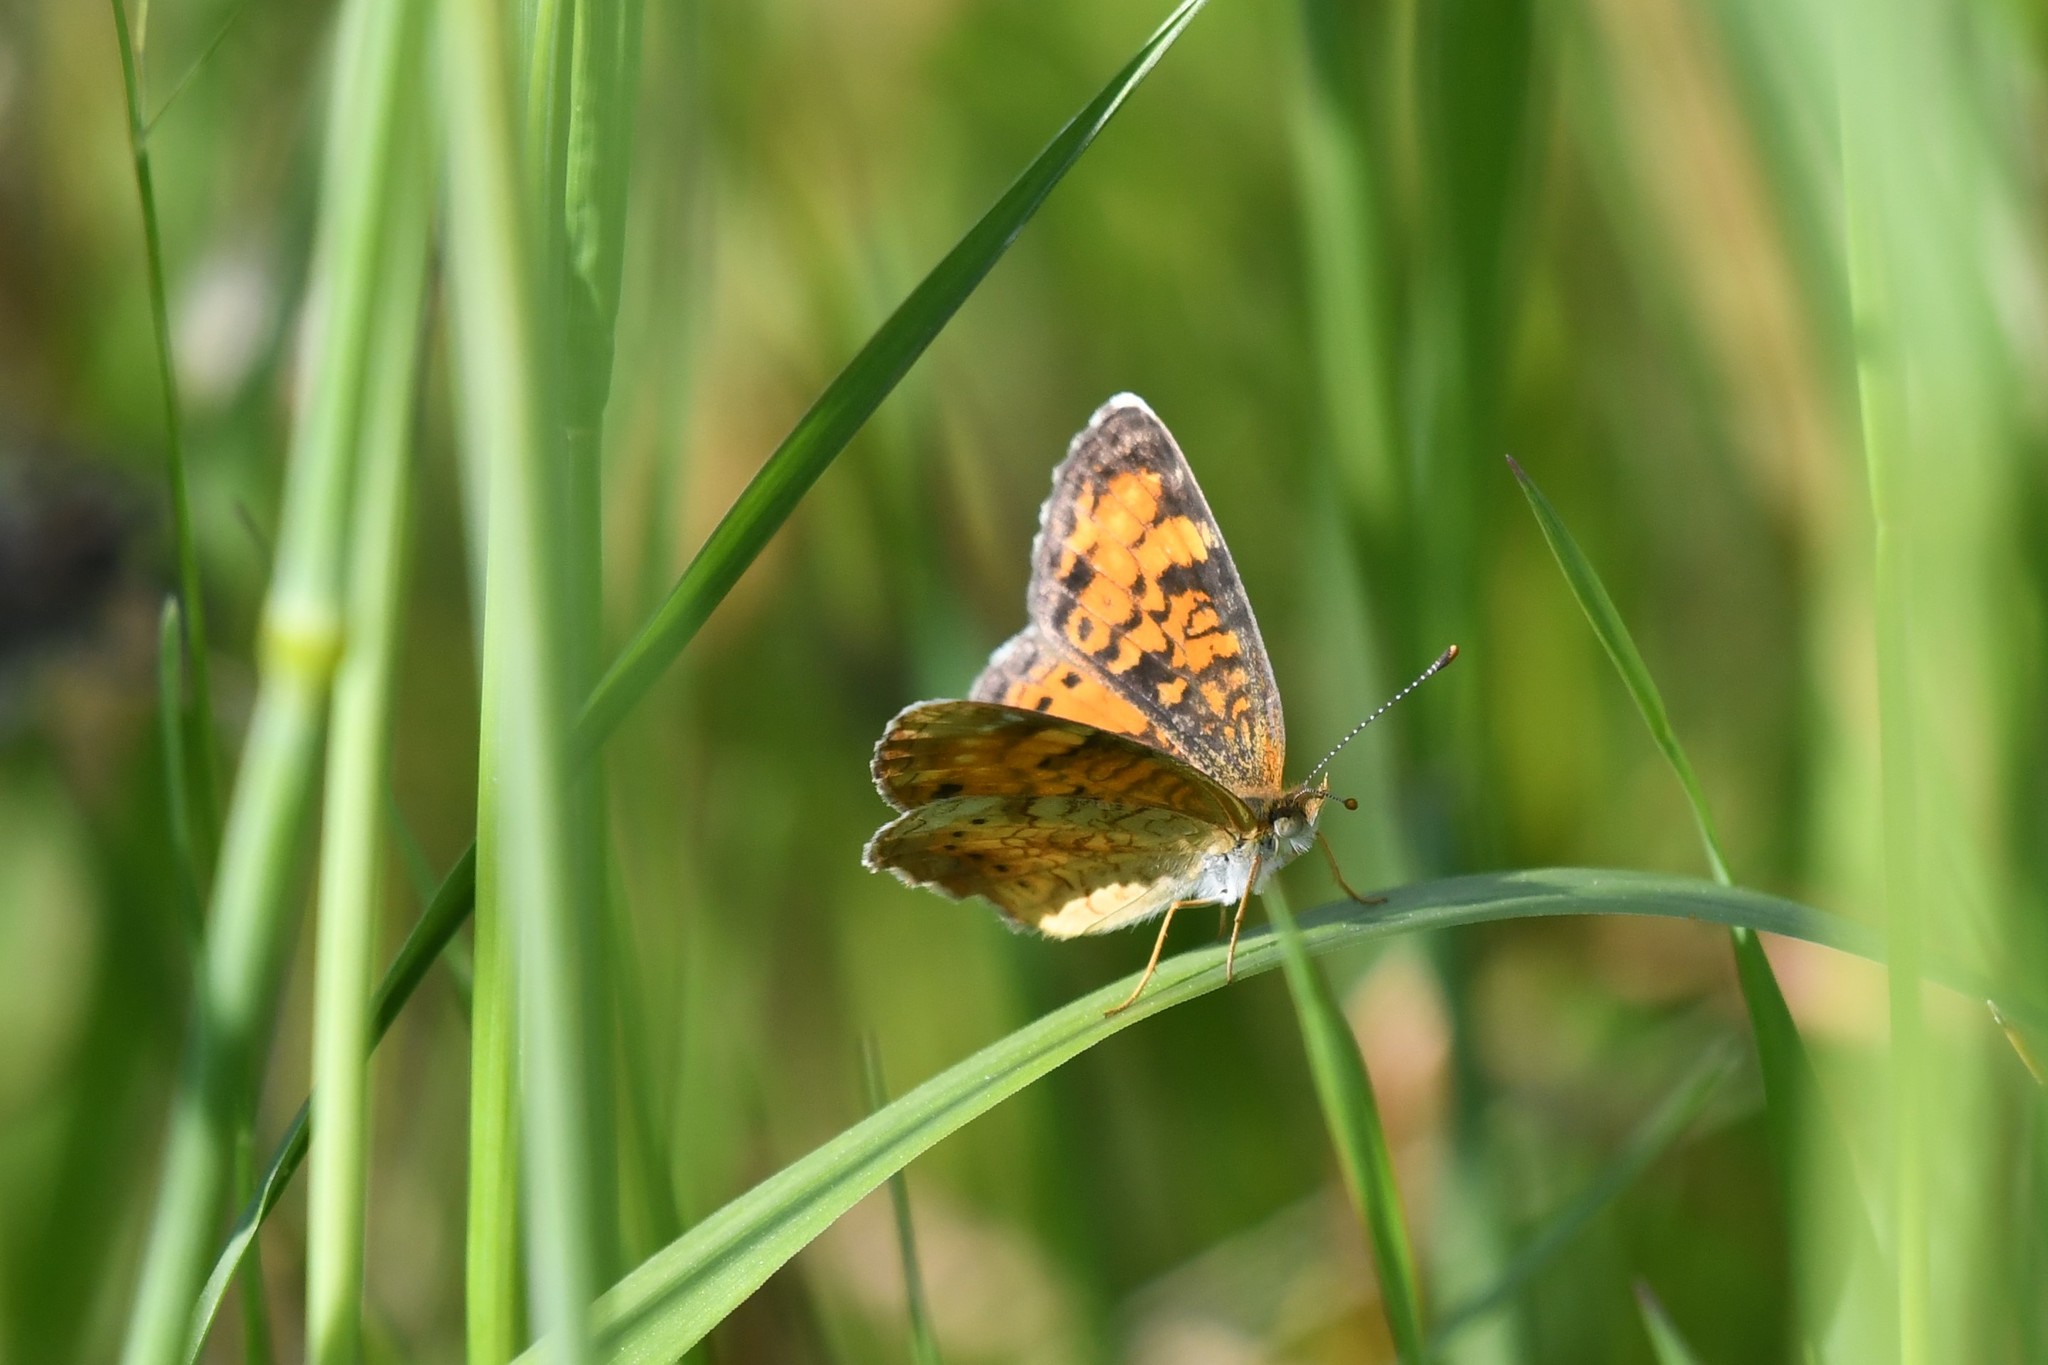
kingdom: Animalia
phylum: Arthropoda
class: Insecta
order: Lepidoptera
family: Nymphalidae
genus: Phyciodes
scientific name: Phyciodes tharos
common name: Pearl crescent
